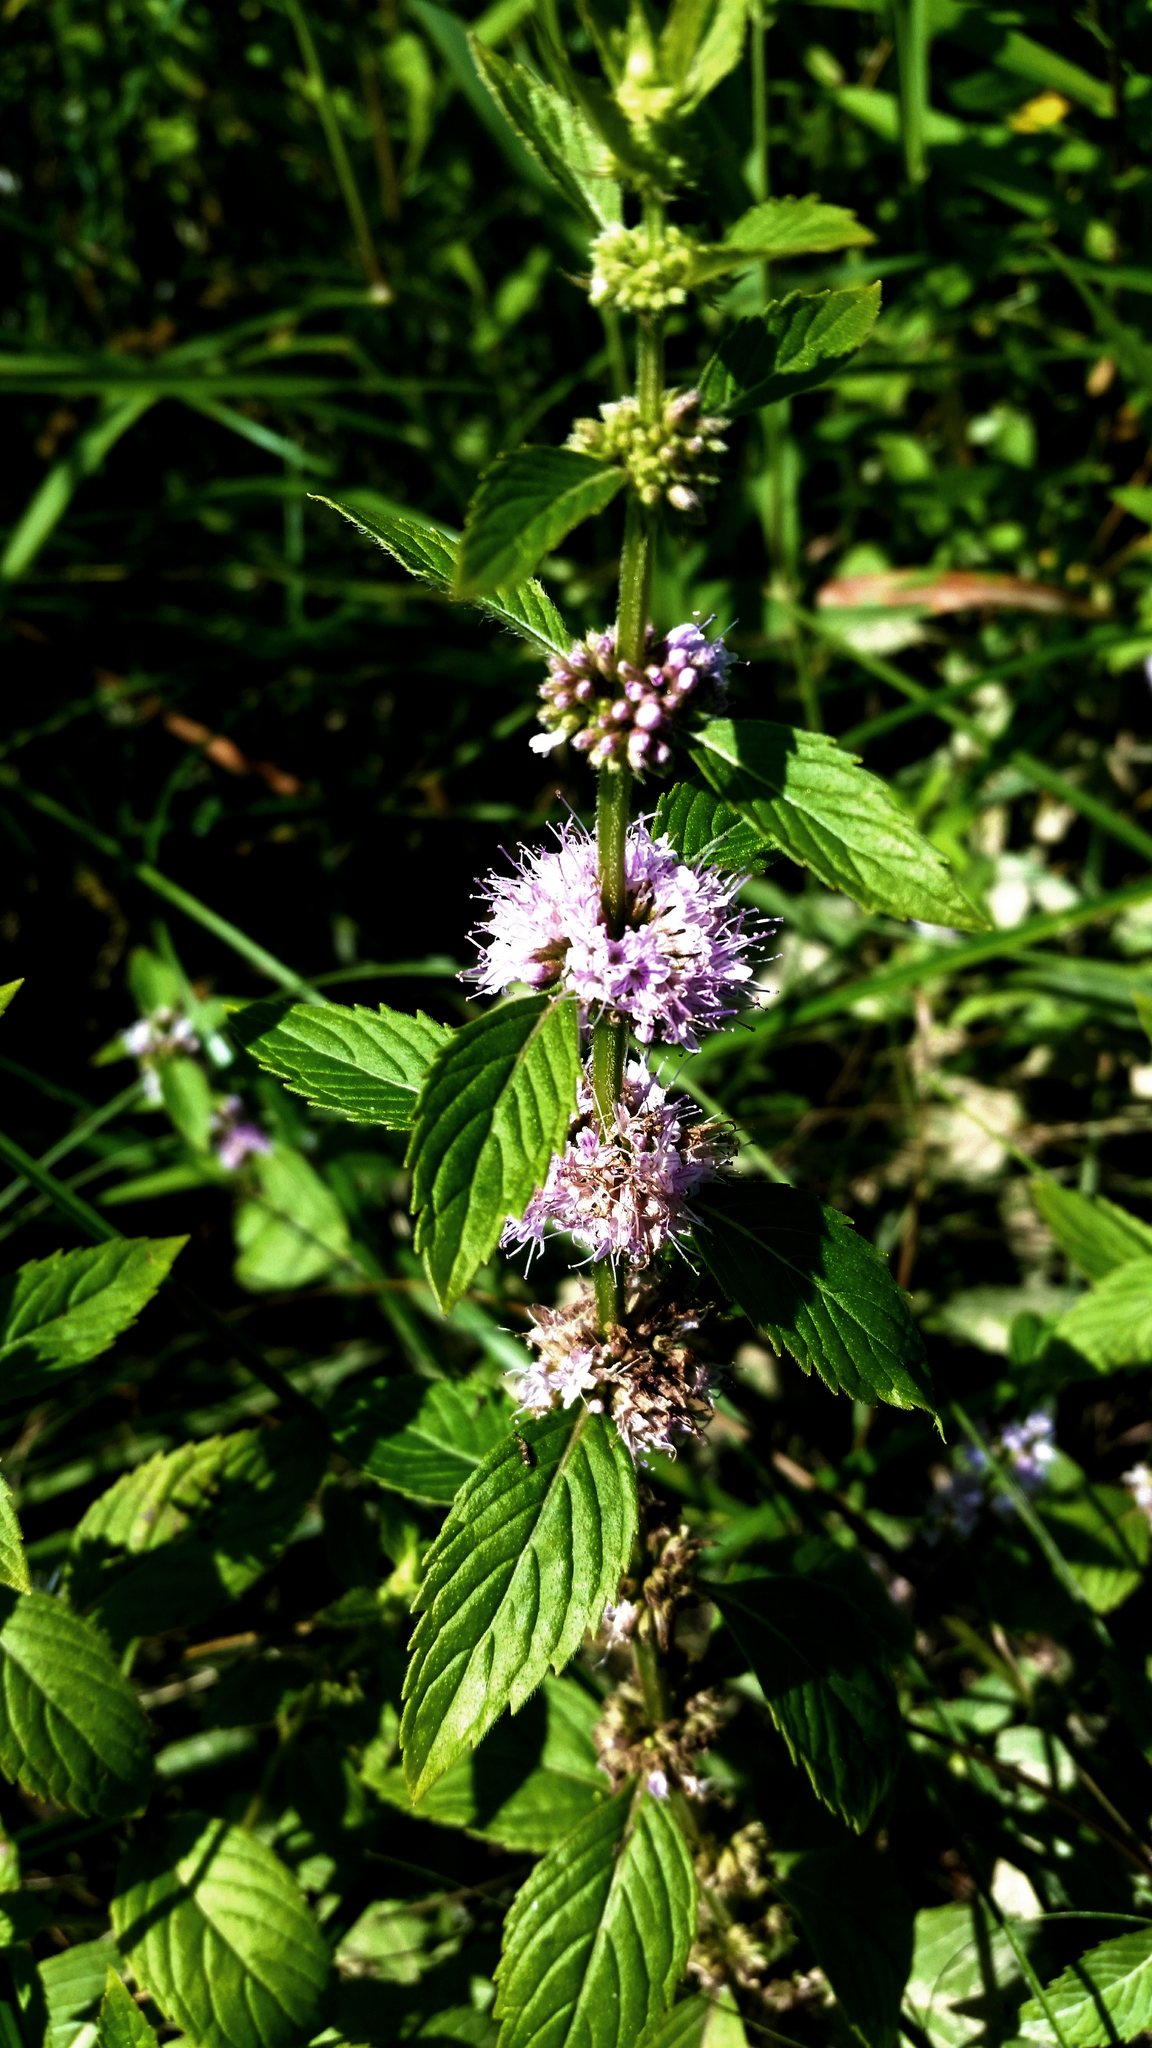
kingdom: Plantae
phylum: Tracheophyta
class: Magnoliopsida
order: Lamiales
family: Lamiaceae
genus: Mentha
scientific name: Mentha arvensis
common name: Corn mint
